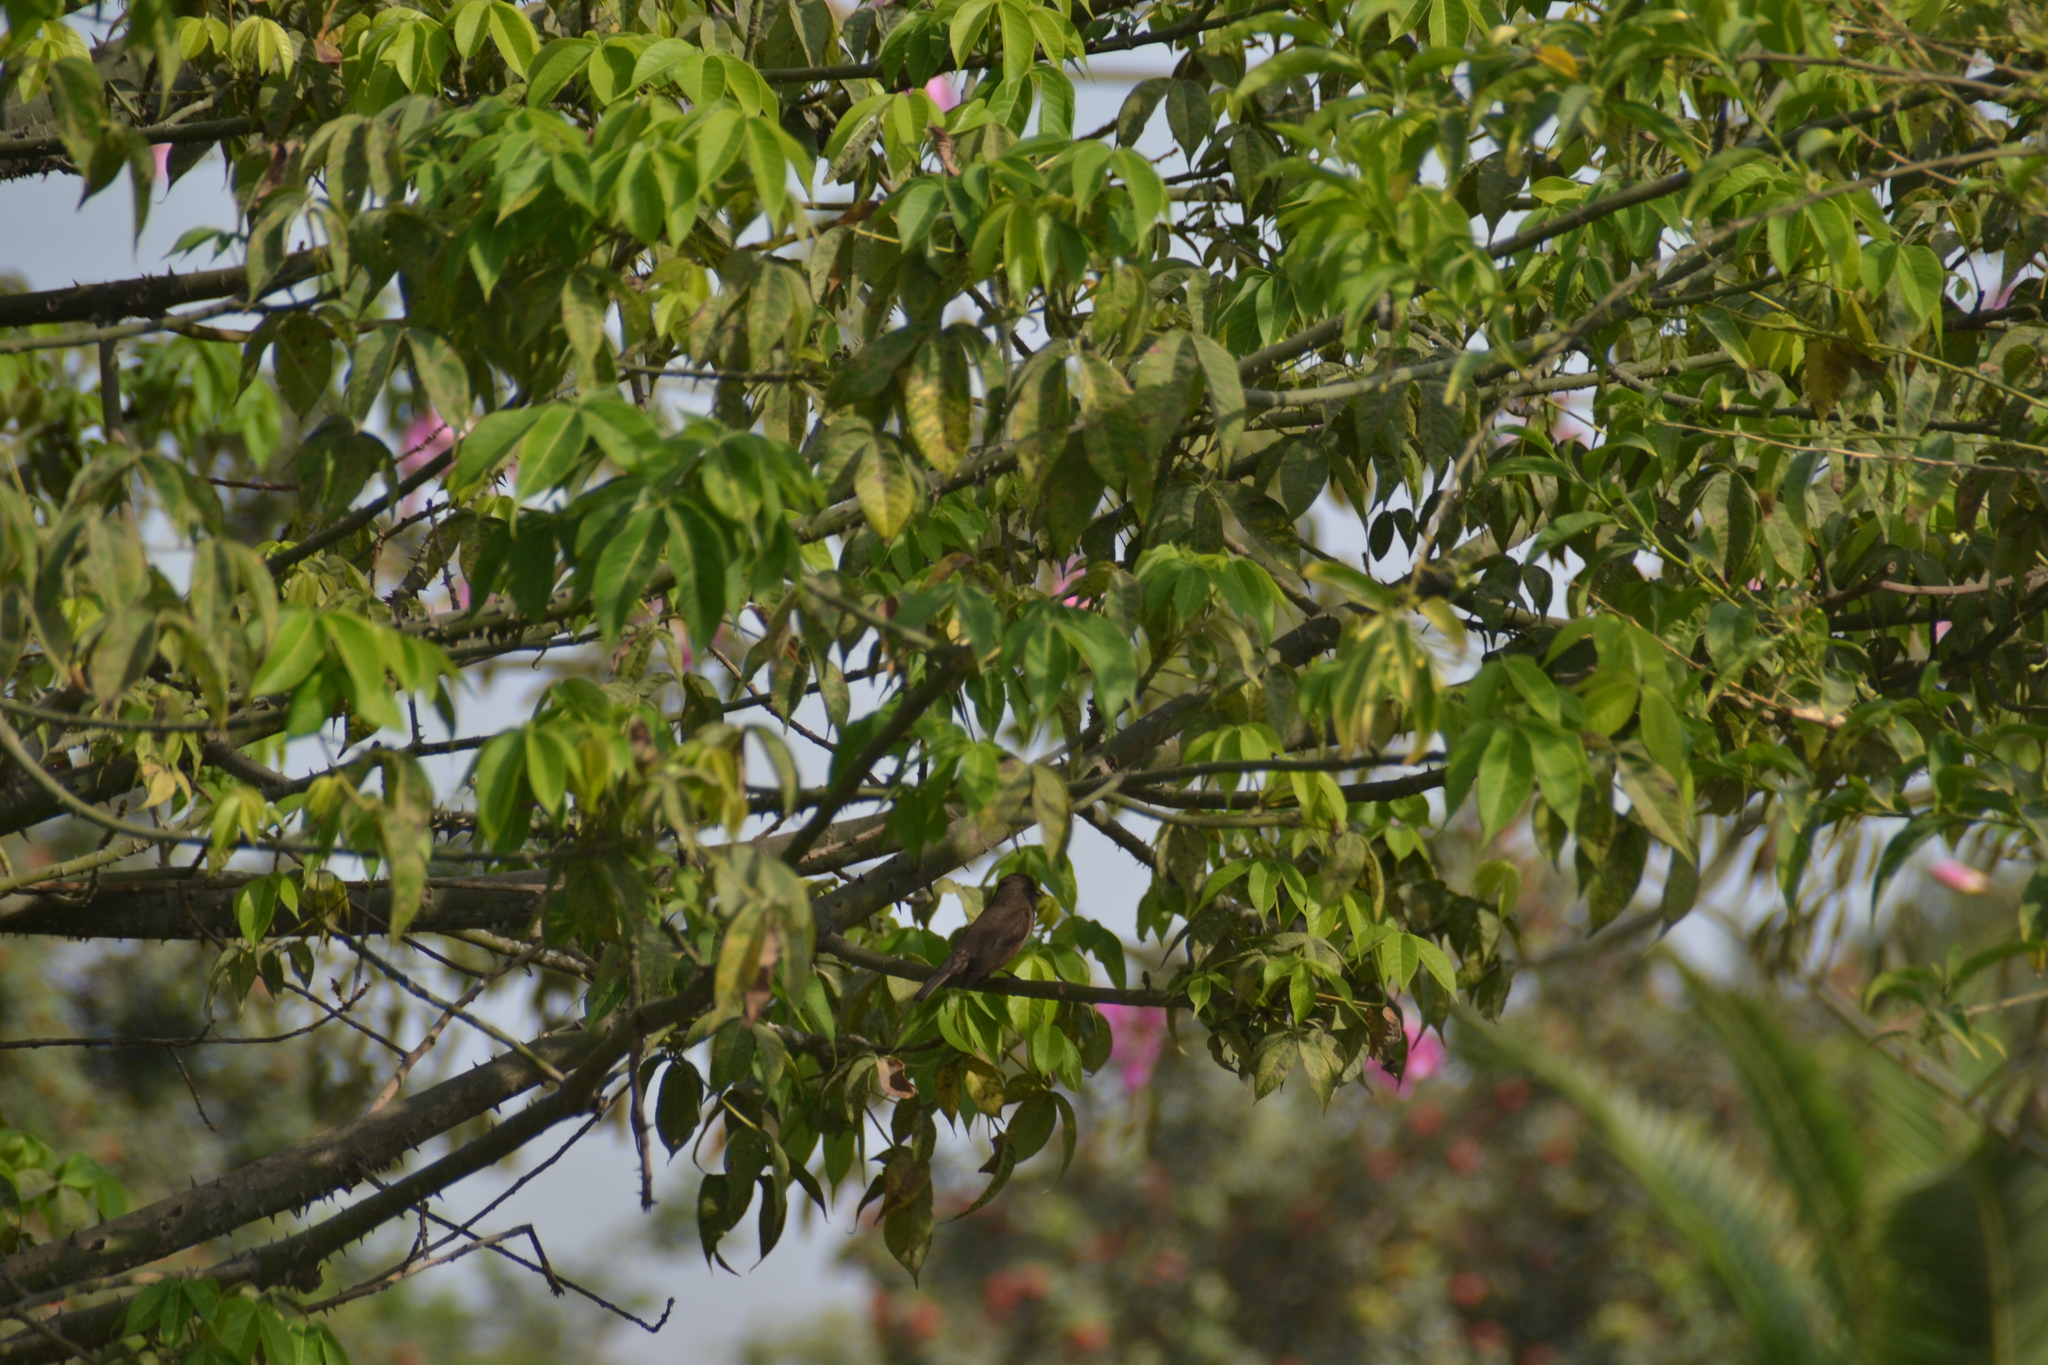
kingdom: Animalia
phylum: Chordata
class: Aves
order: Passeriformes
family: Tyrannidae
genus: Pyrocephalus
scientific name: Pyrocephalus rubinus
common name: Vermilion flycatcher
